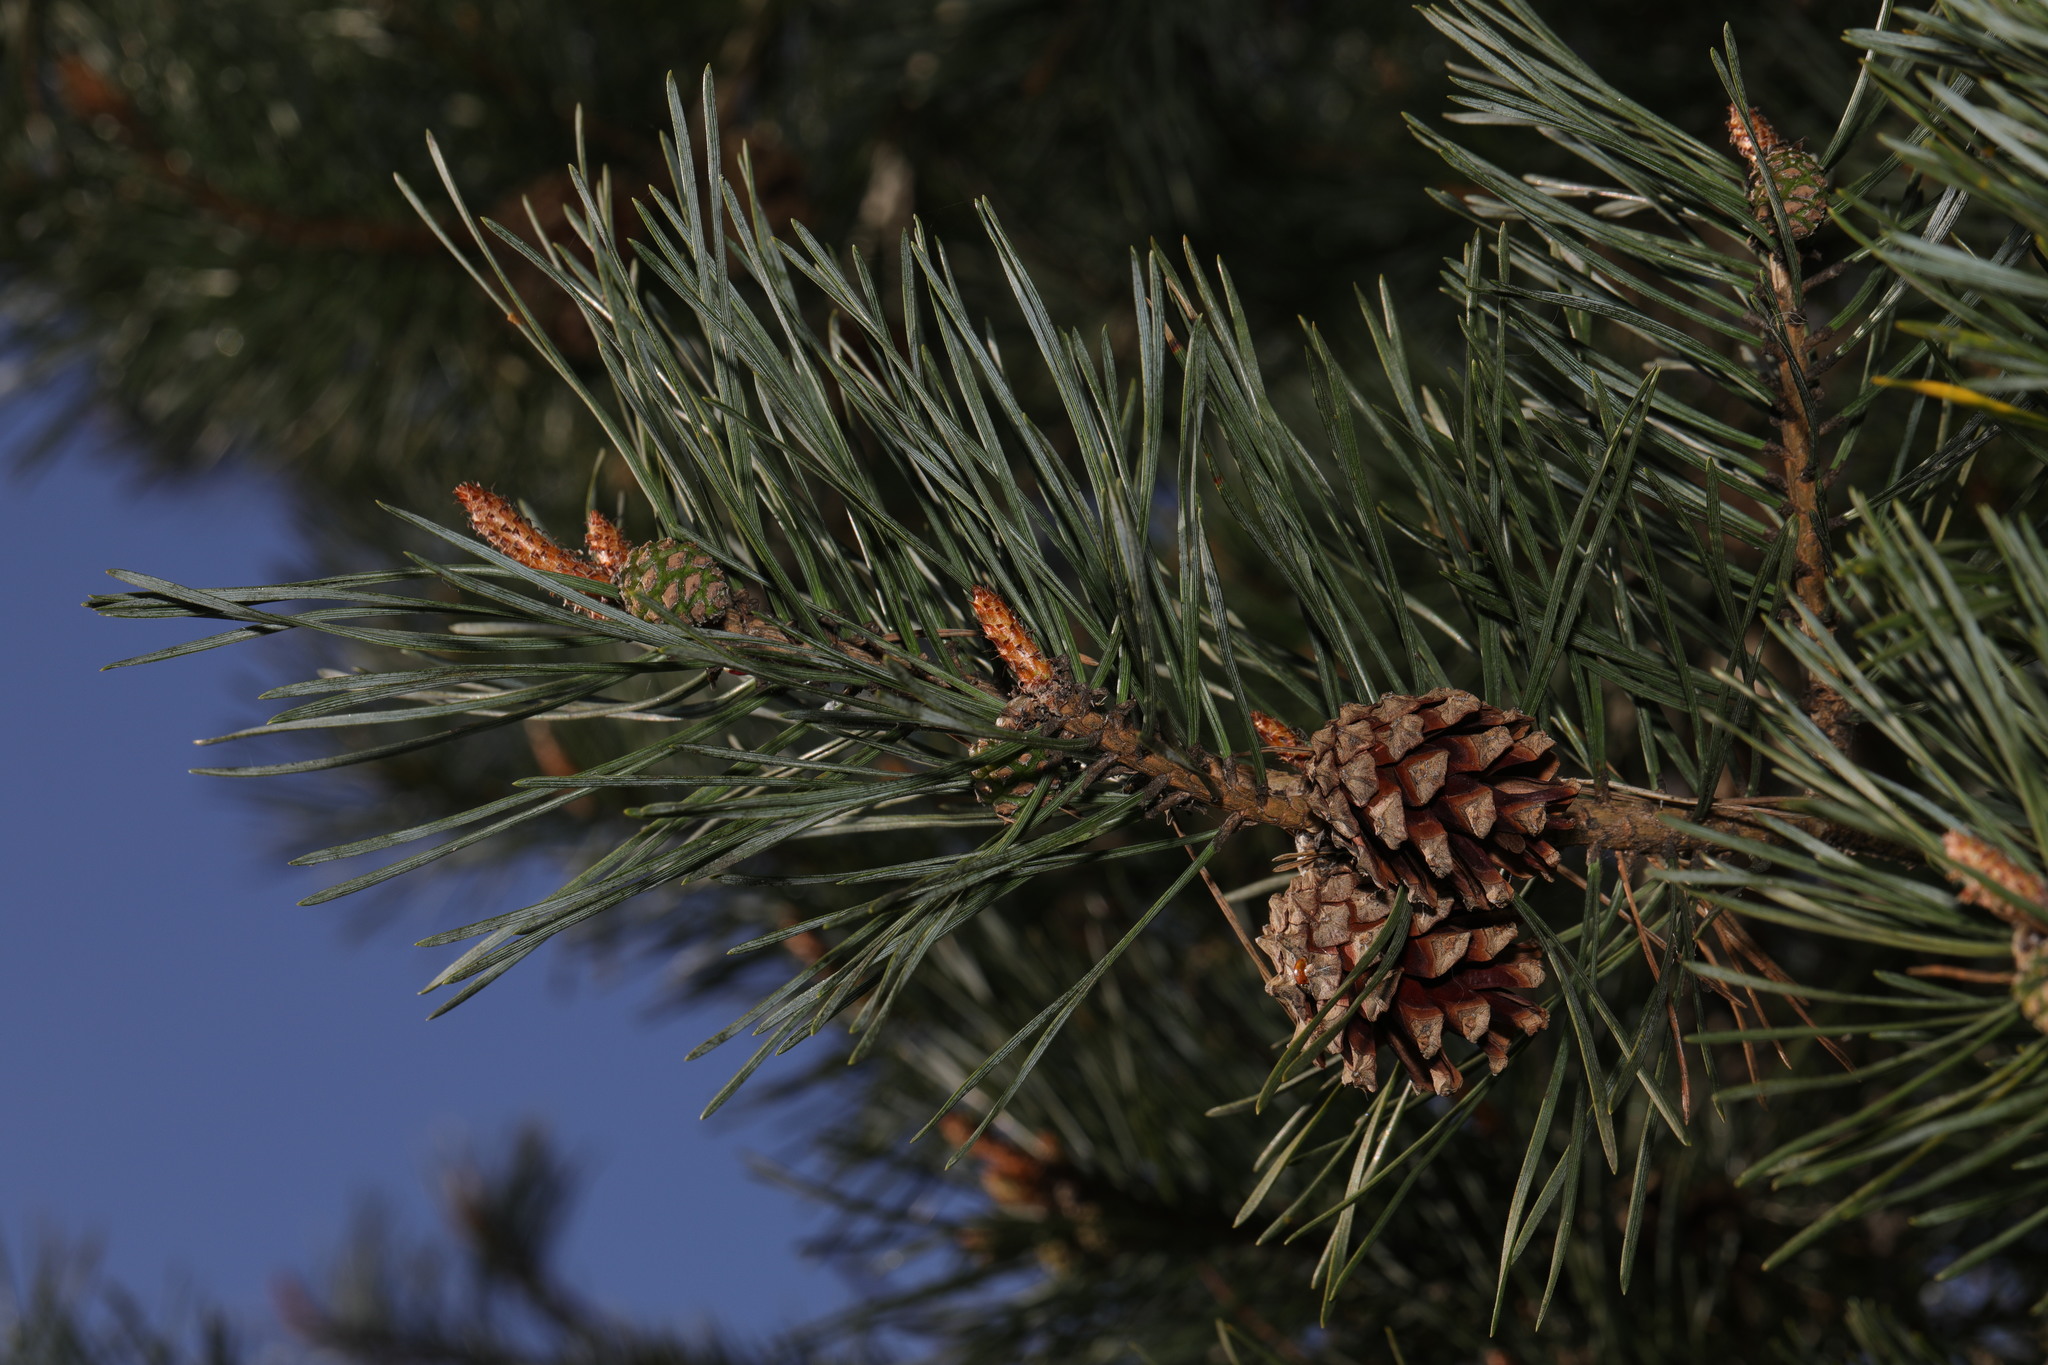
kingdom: Plantae
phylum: Tracheophyta
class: Pinopsida
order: Pinales
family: Pinaceae
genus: Pinus
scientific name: Pinus sylvestris
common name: Scots pine
